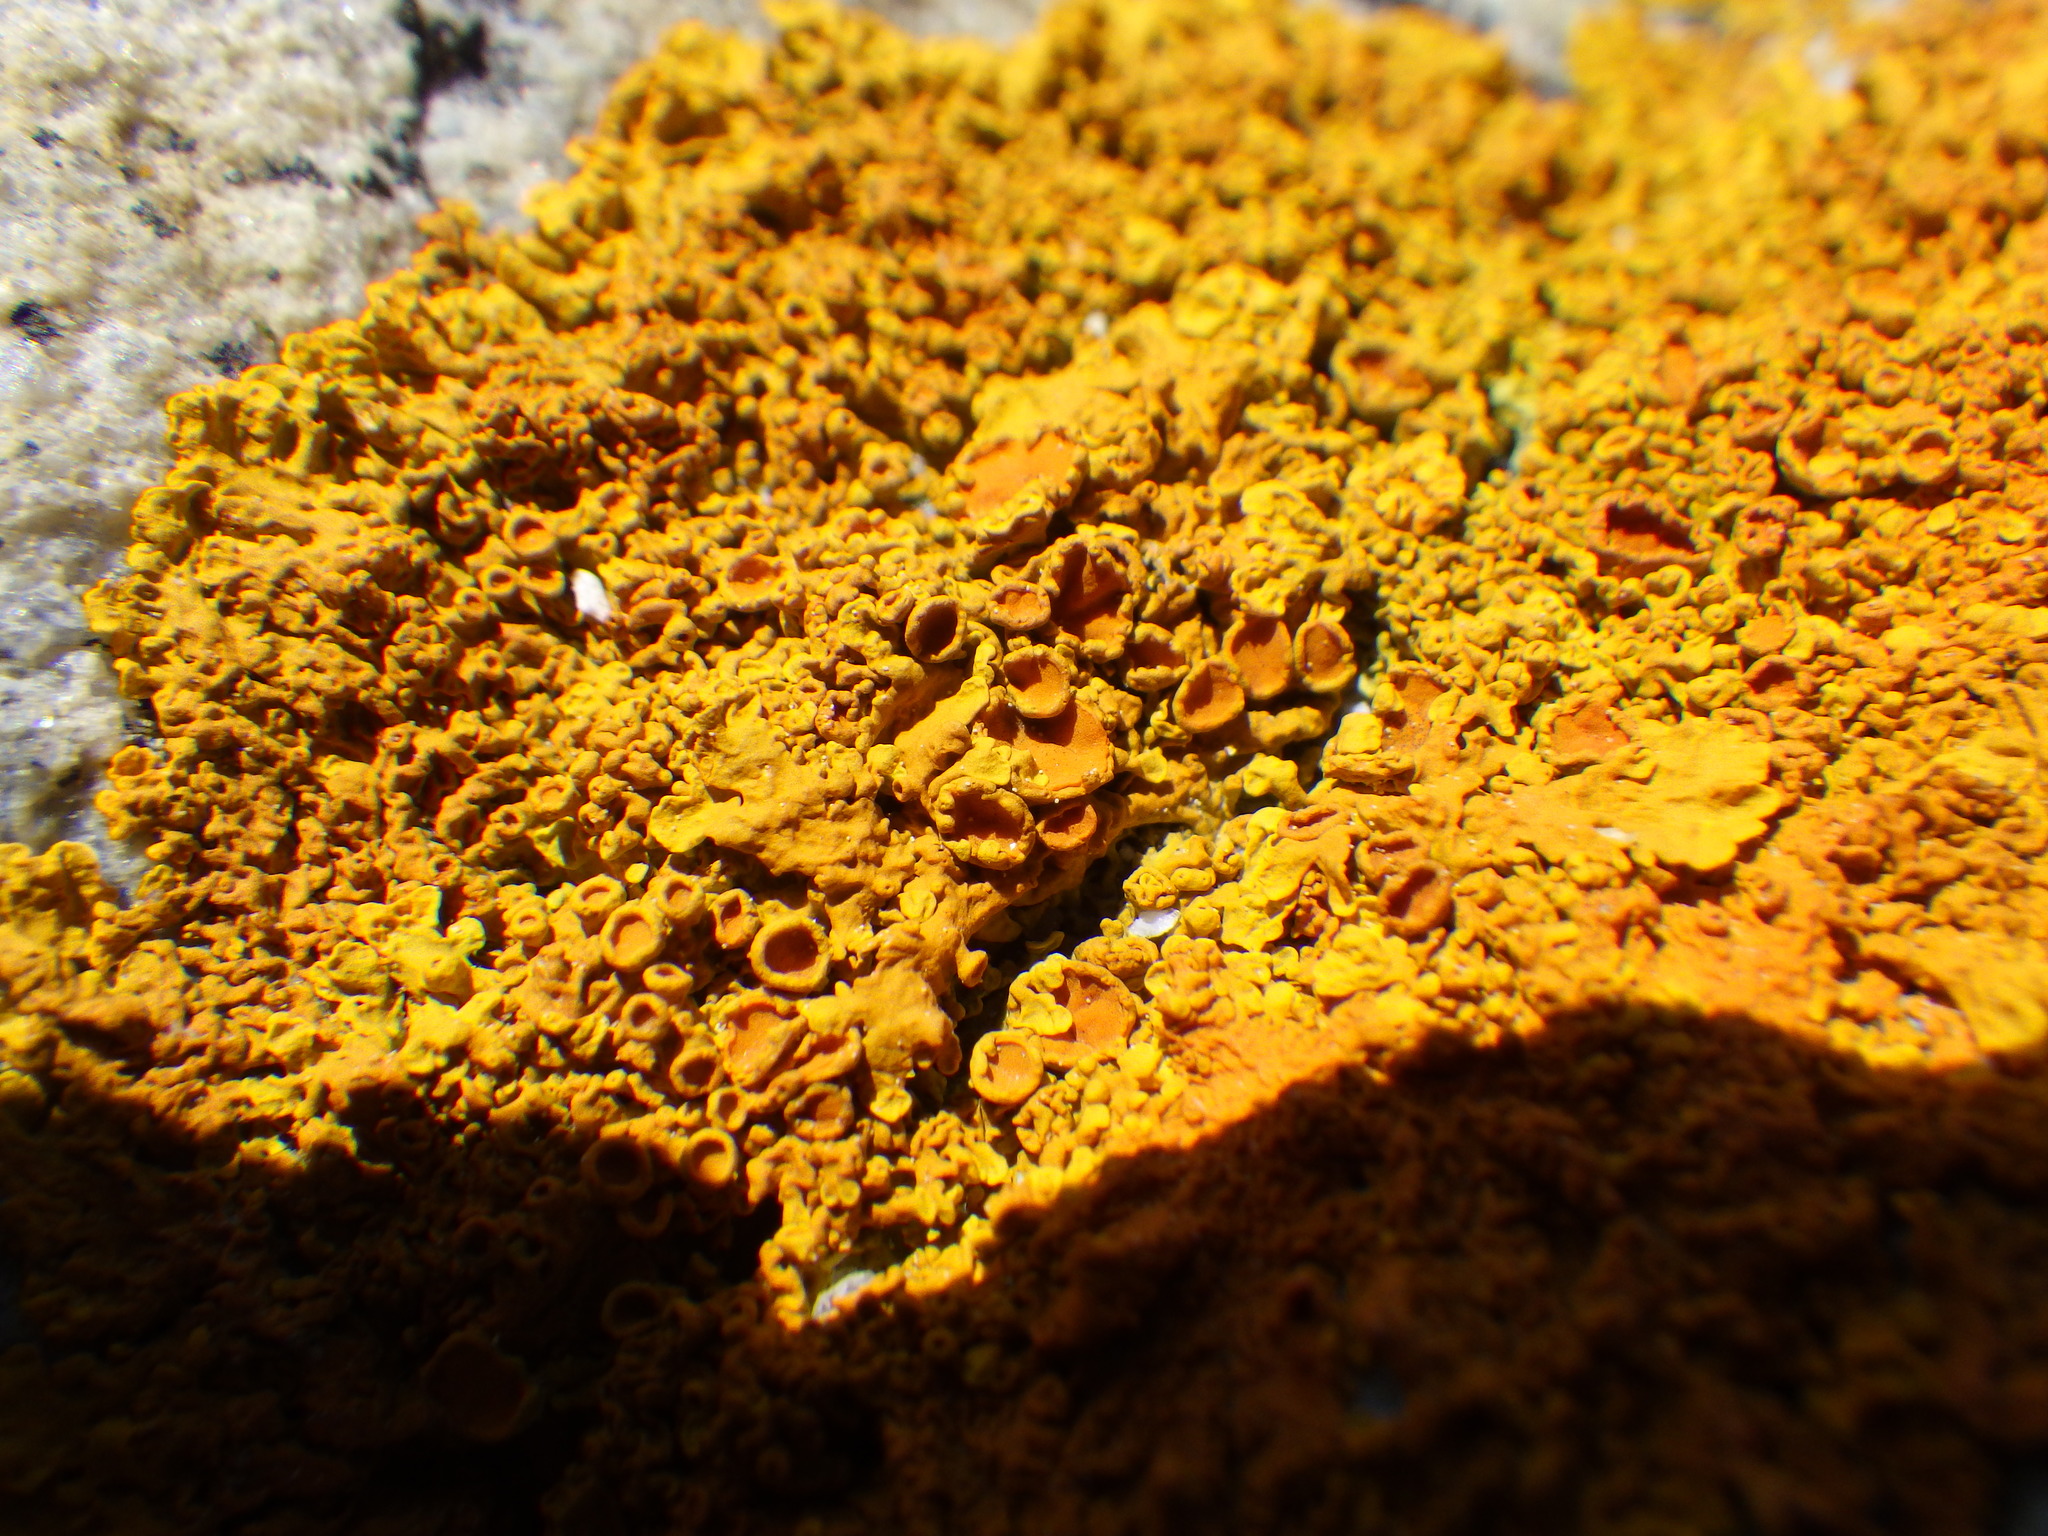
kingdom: Fungi
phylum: Ascomycota
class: Lecanoromycetes
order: Teloschistales
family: Teloschistaceae
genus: Xanthoria
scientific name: Xanthoria parietina
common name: Common orange lichen
